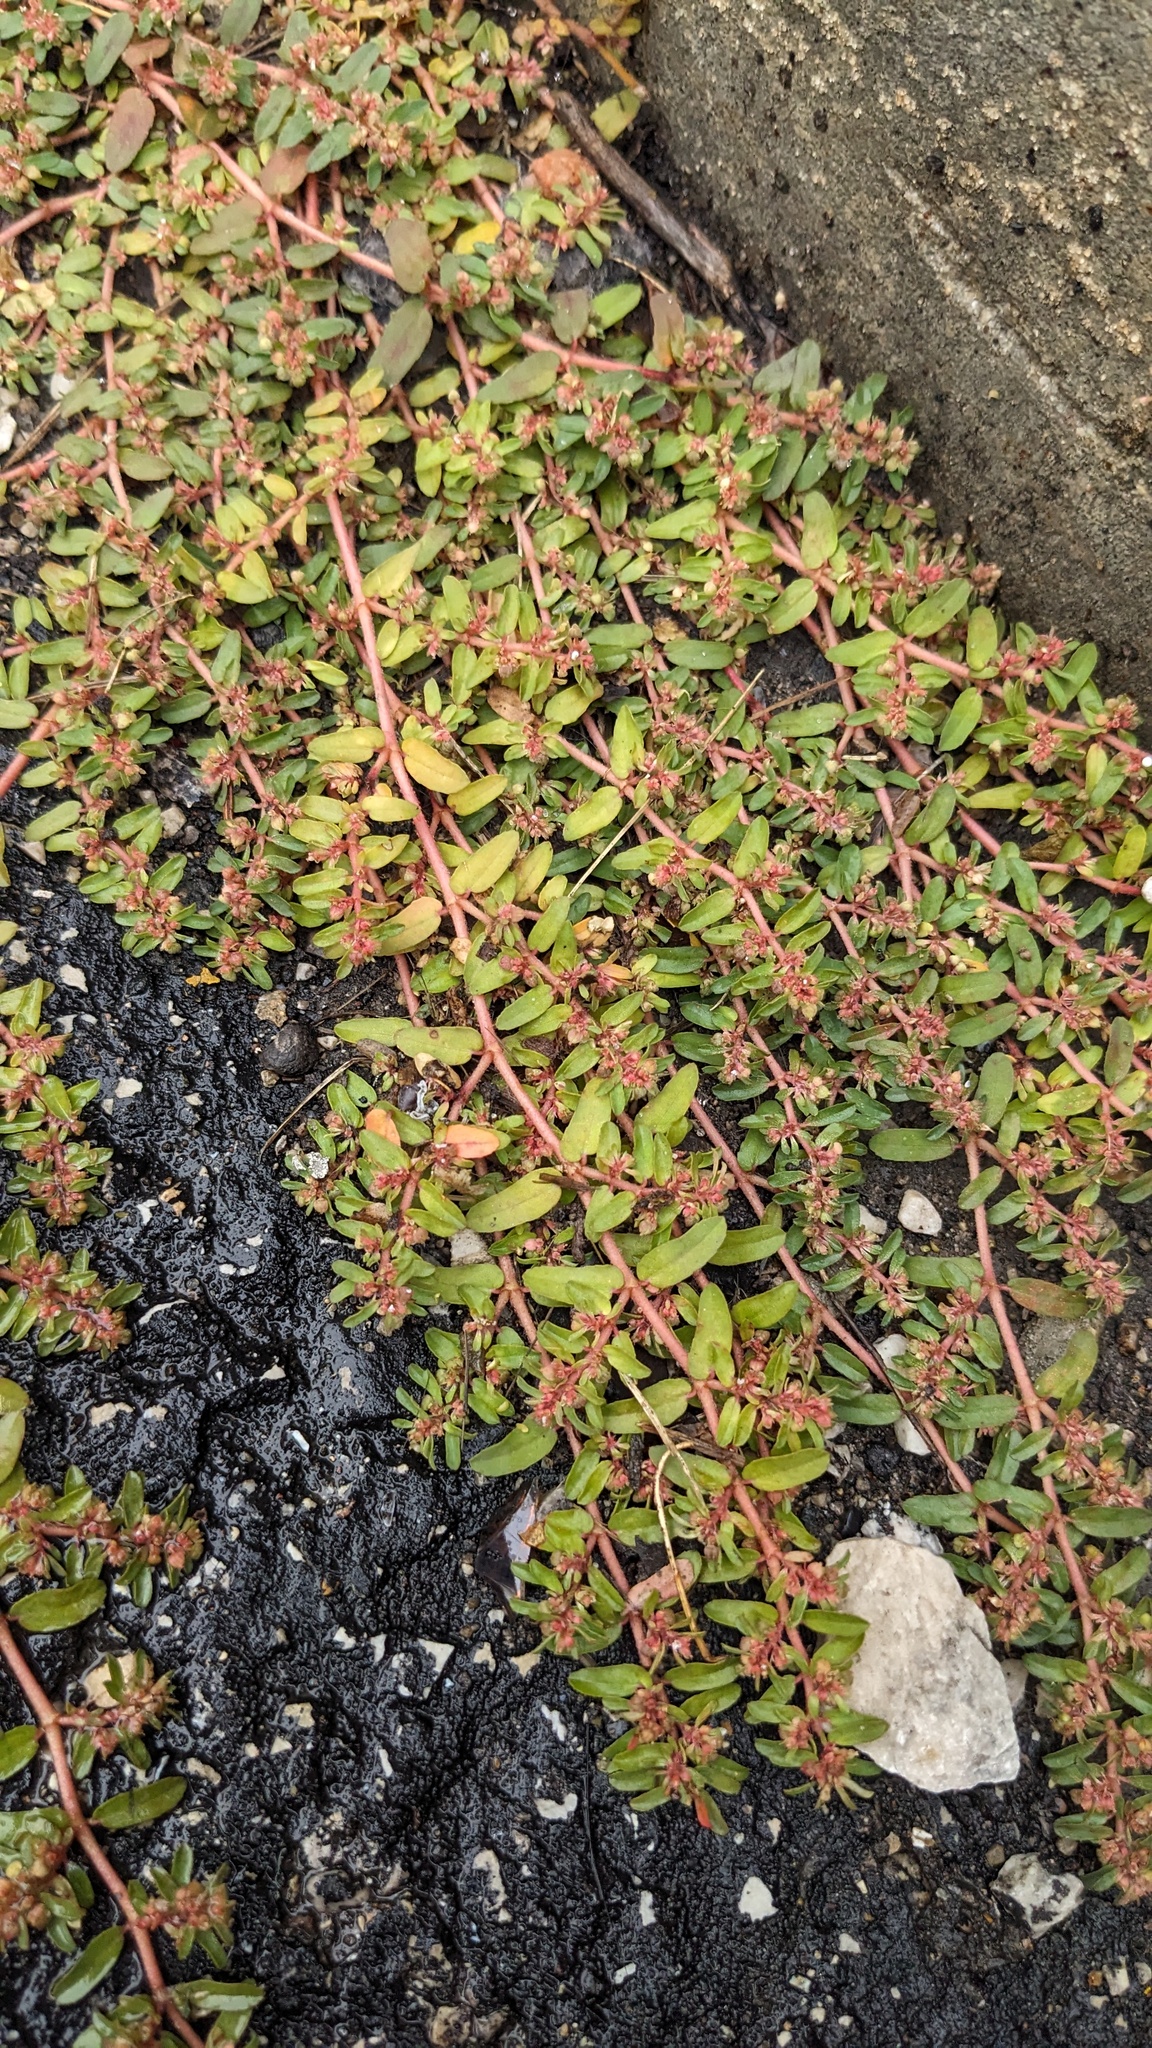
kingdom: Plantae
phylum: Tracheophyta
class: Magnoliopsida
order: Malpighiales
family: Euphorbiaceae
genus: Euphorbia
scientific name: Euphorbia maculata
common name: Spotted spurge
